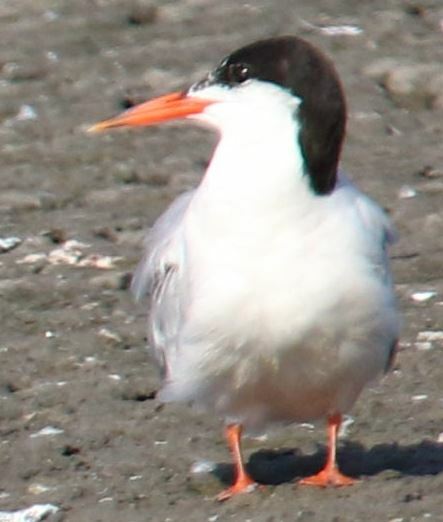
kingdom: Animalia
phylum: Chordata
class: Aves
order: Charadriiformes
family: Laridae
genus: Sterna
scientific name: Sterna hirundo
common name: Common tern
